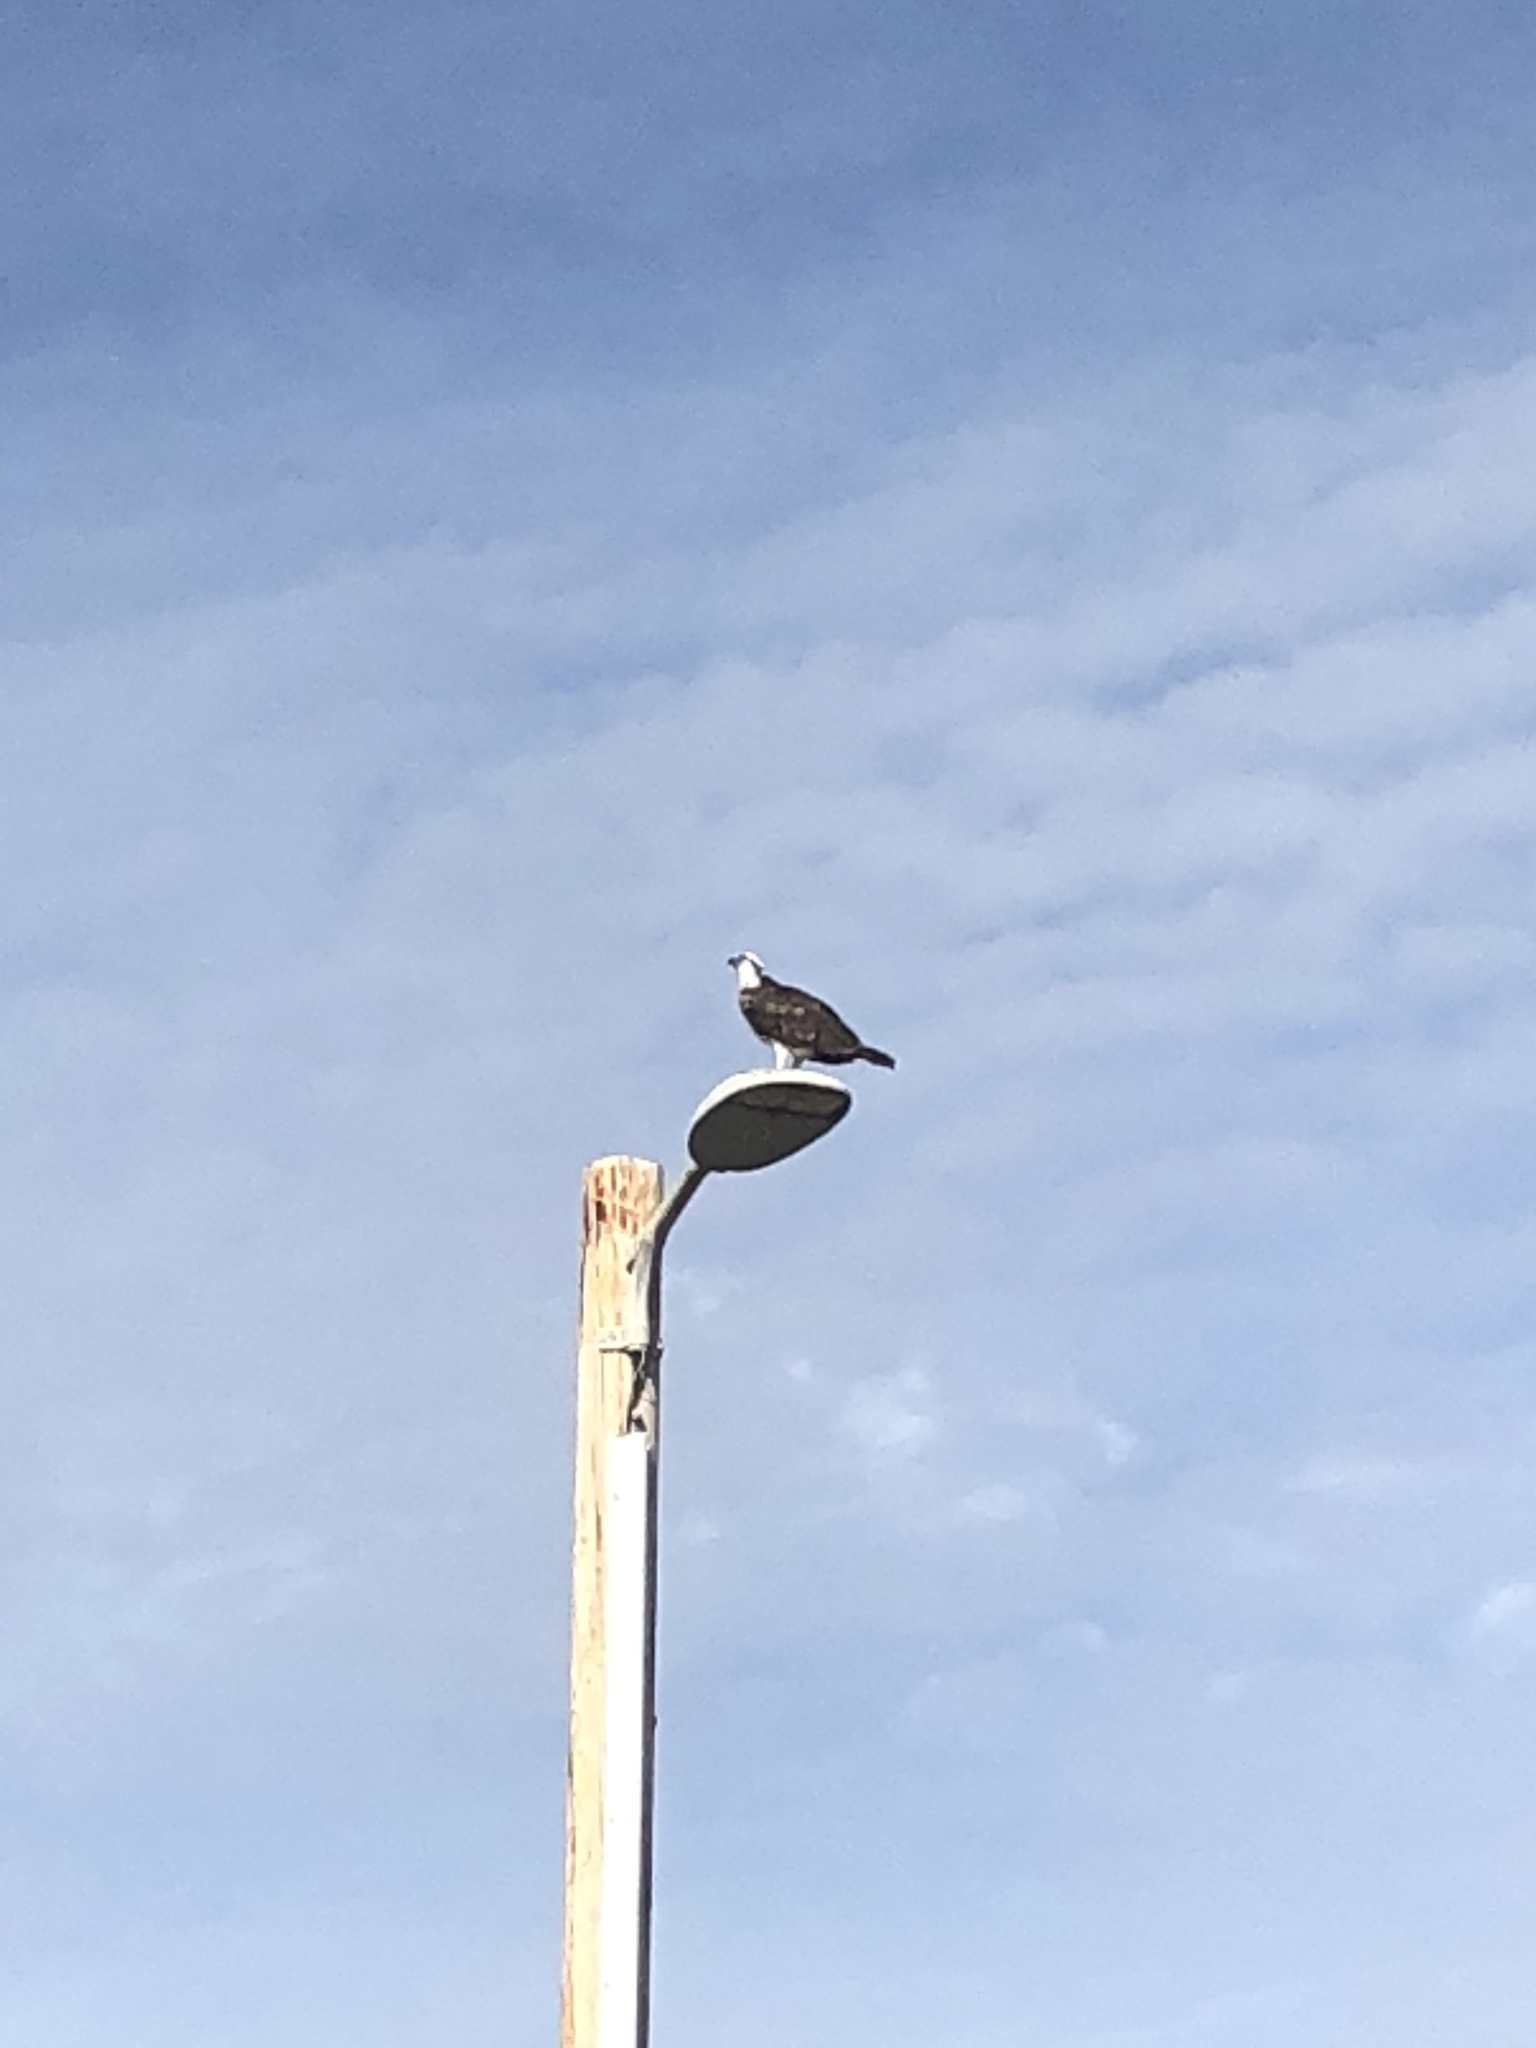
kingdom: Animalia
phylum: Chordata
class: Aves
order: Accipitriformes
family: Pandionidae
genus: Pandion
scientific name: Pandion haliaetus
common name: Osprey
